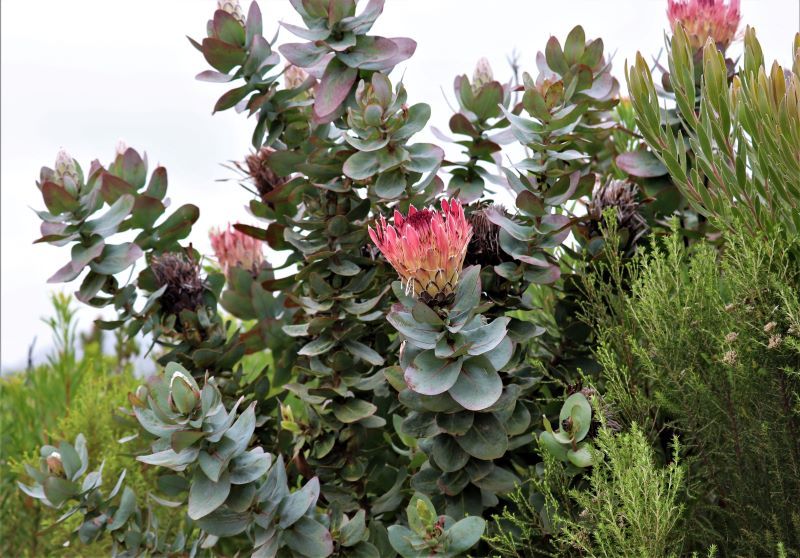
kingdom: Plantae
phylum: Tracheophyta
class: Magnoliopsida
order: Proteales
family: Proteaceae
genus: Protea
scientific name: Protea eximia
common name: Broad-leaved sugarbush
